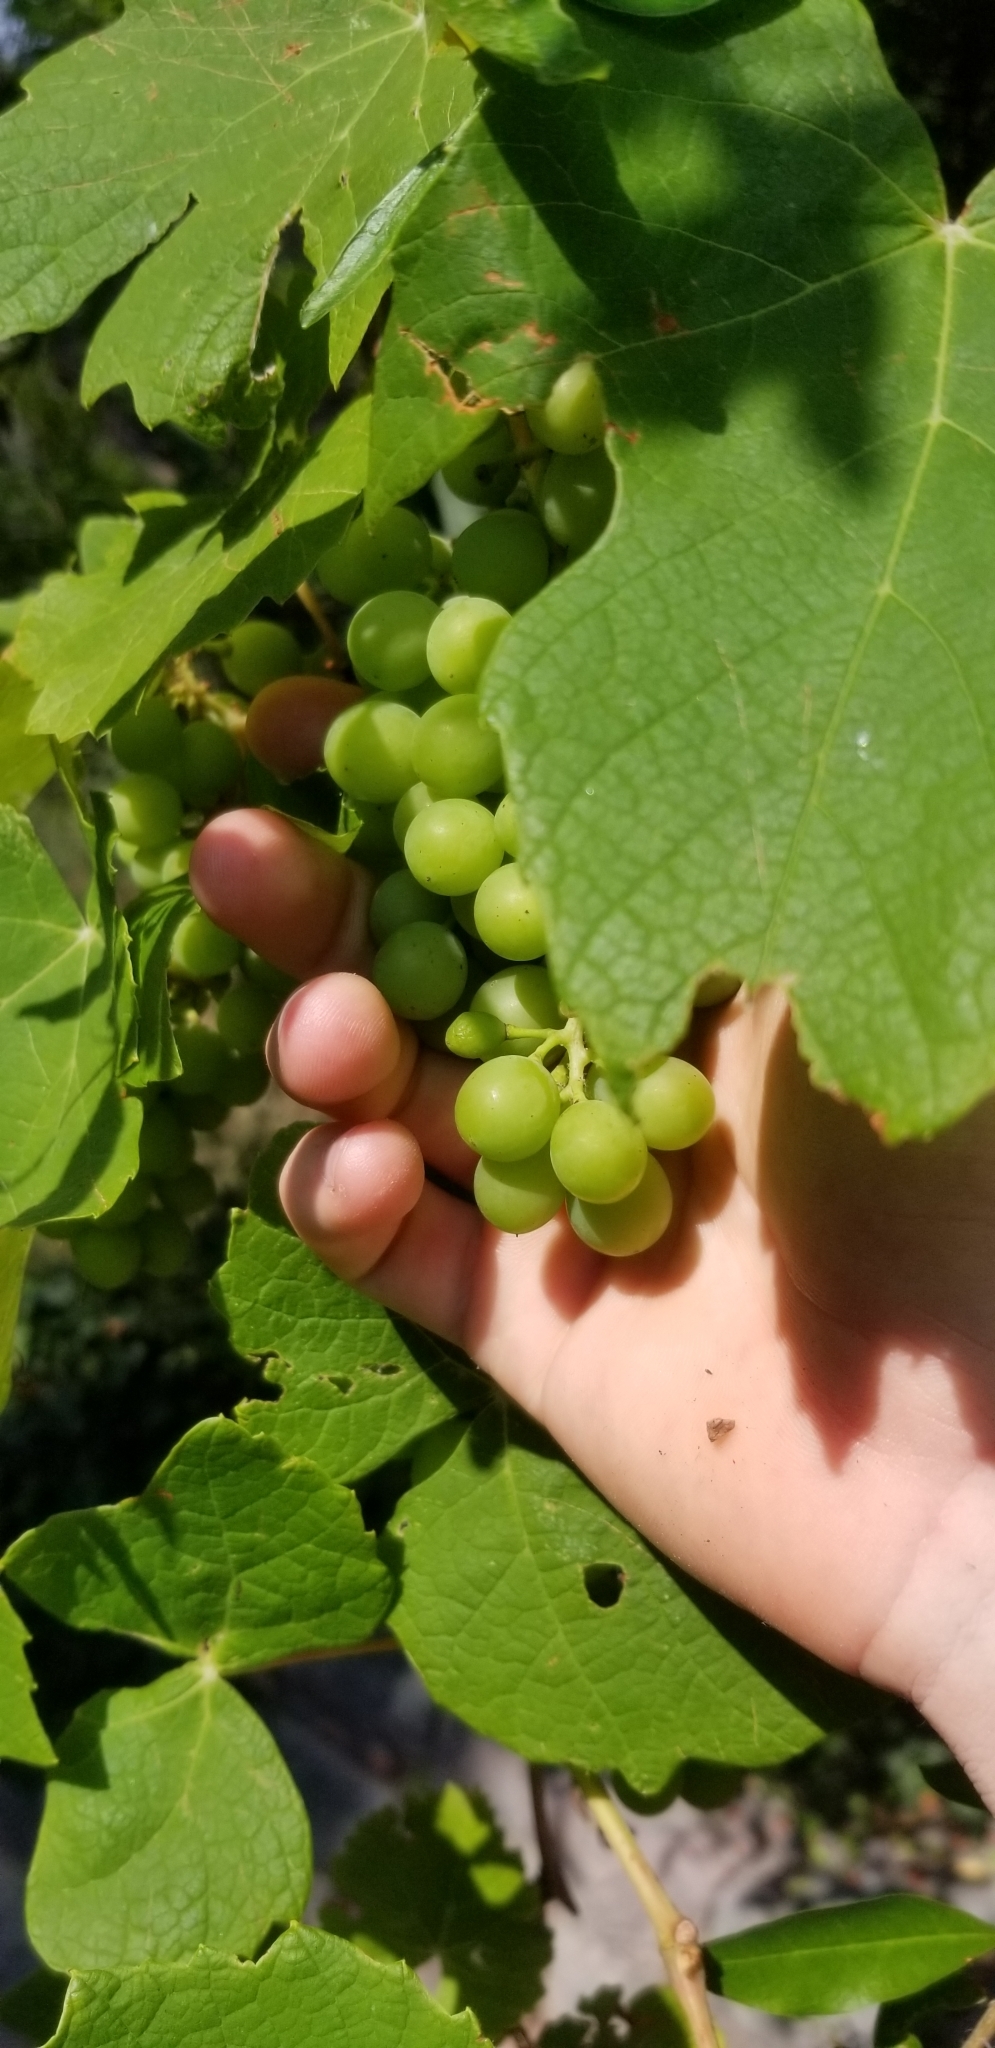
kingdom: Plantae
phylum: Tracheophyta
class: Magnoliopsida
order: Vitales
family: Vitaceae
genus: Vitis
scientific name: Vitis vinifera
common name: Grape-vine
